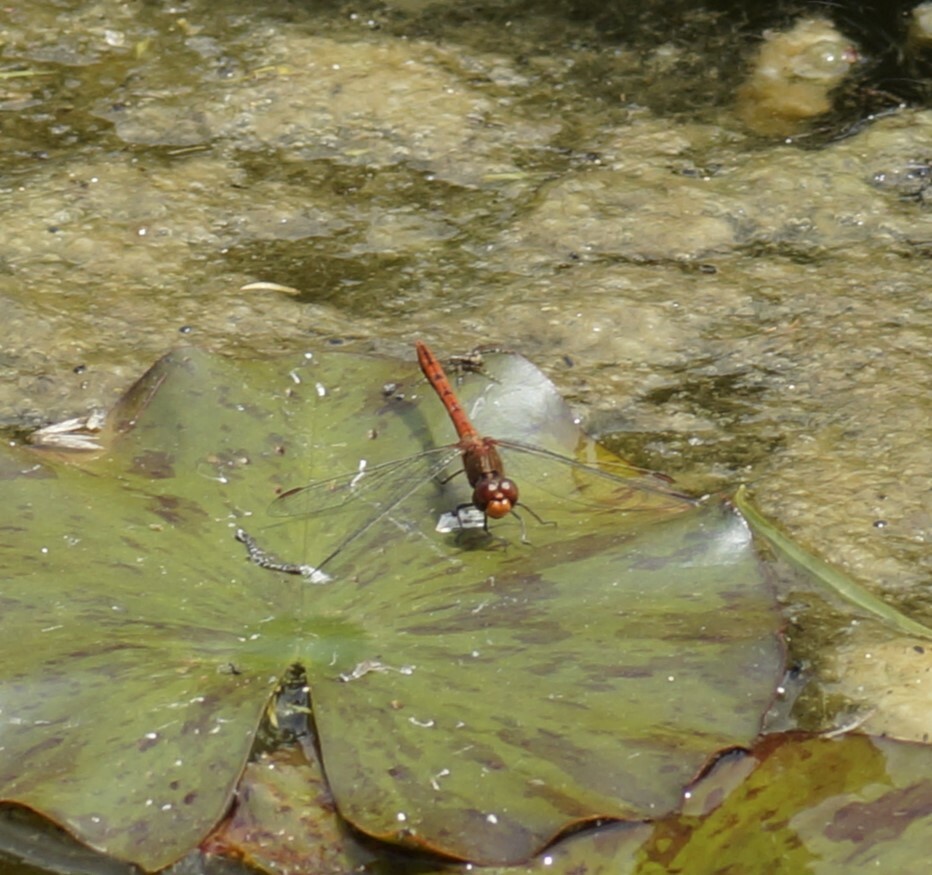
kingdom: Animalia
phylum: Arthropoda
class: Insecta
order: Odonata
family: Libellulidae
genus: Diplacodes
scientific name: Diplacodes bipunctata
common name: Red percher dragonfly
